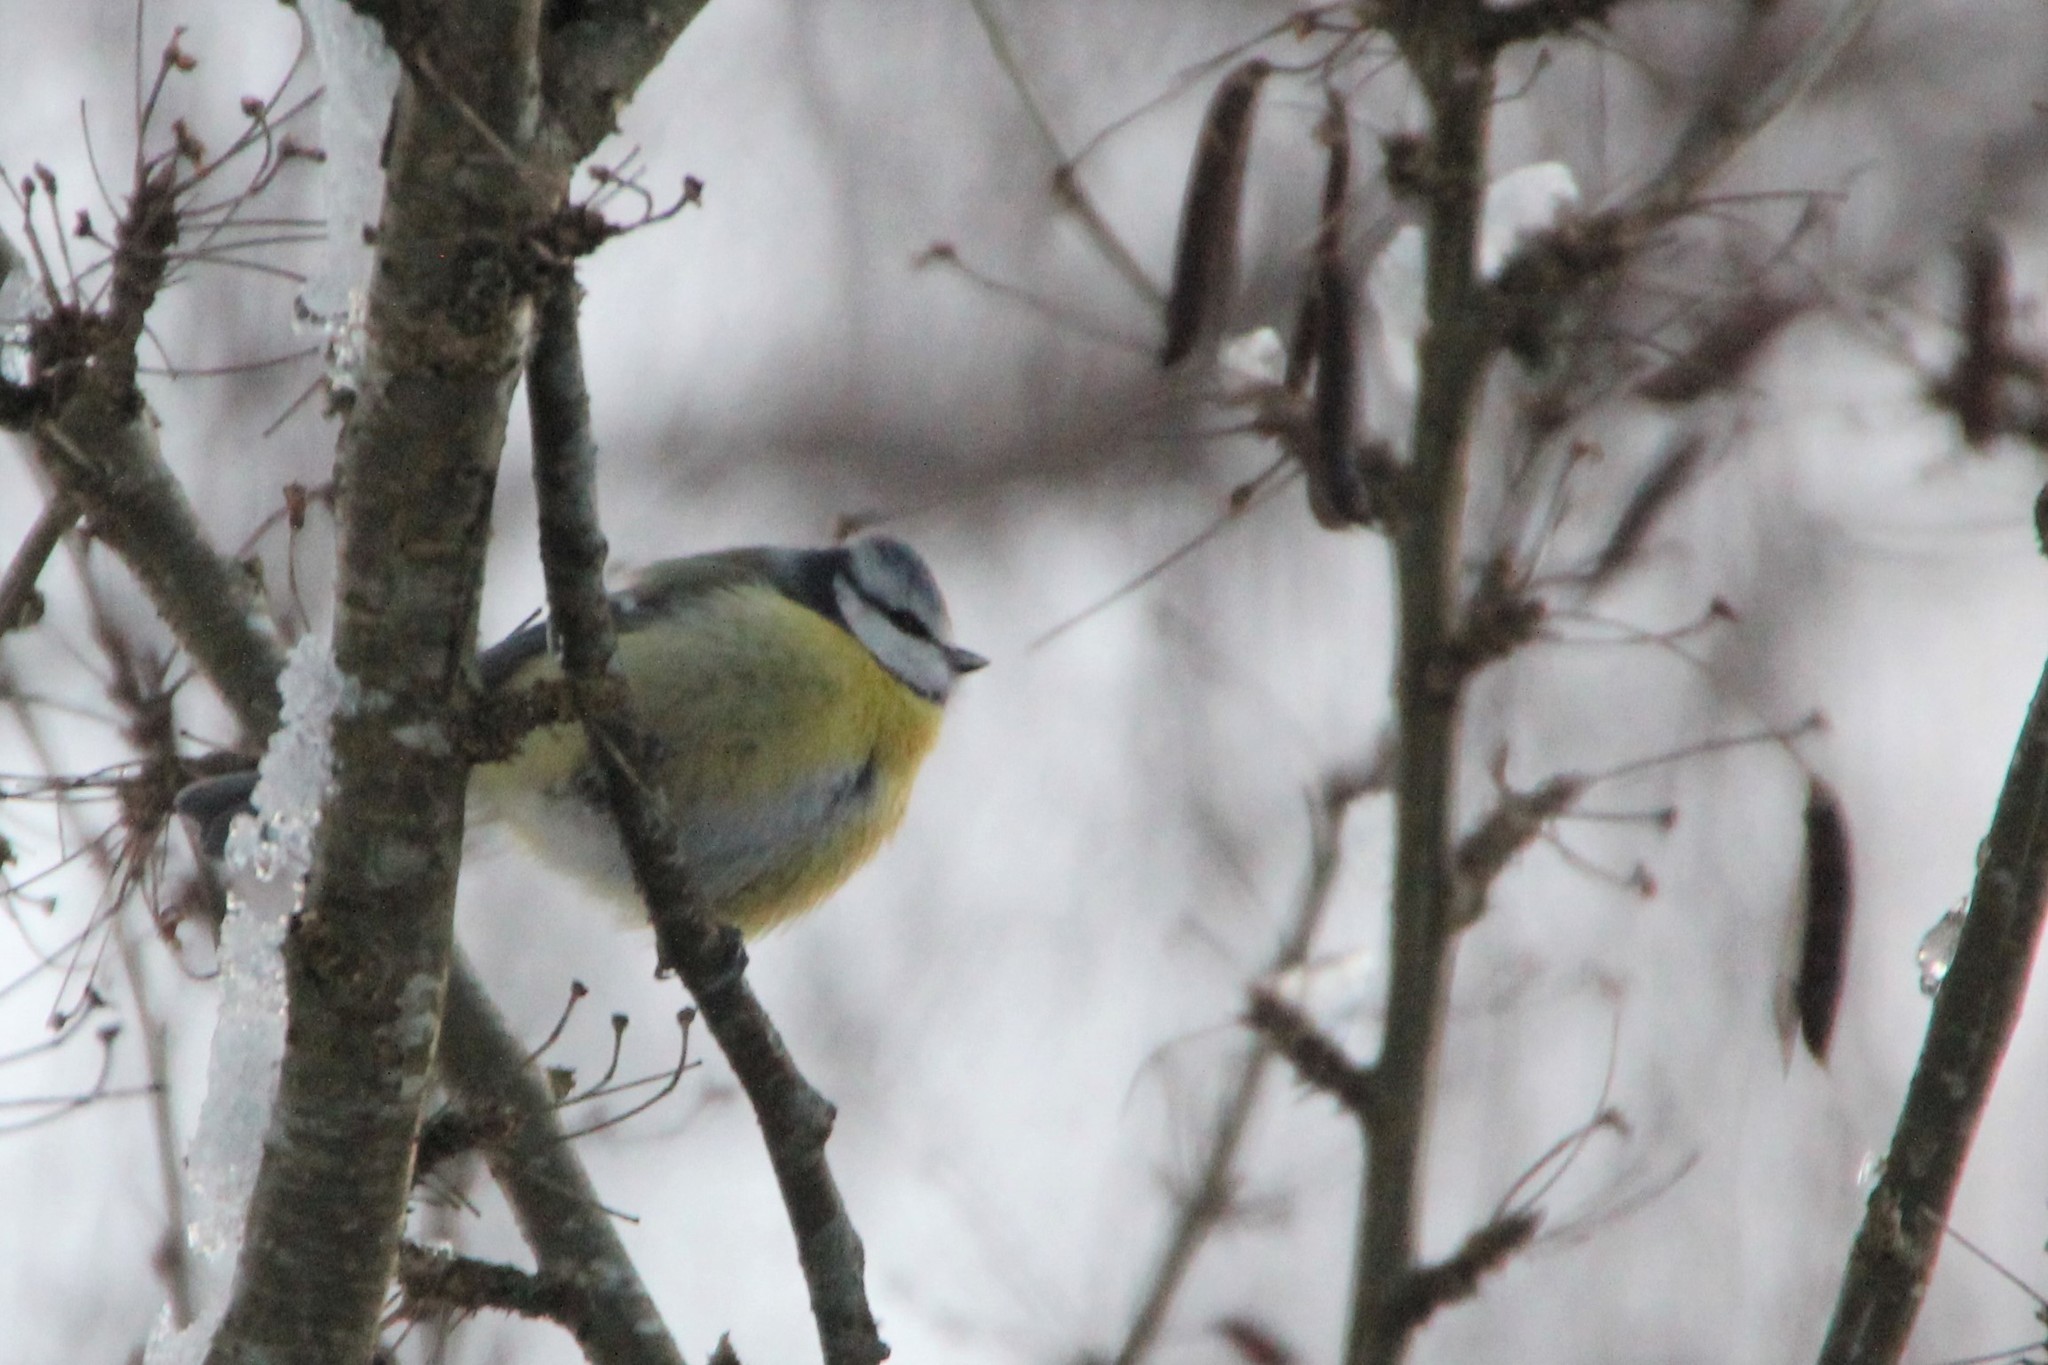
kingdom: Animalia
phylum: Chordata
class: Aves
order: Passeriformes
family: Paridae
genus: Cyanistes
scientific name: Cyanistes caeruleus
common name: Eurasian blue tit
